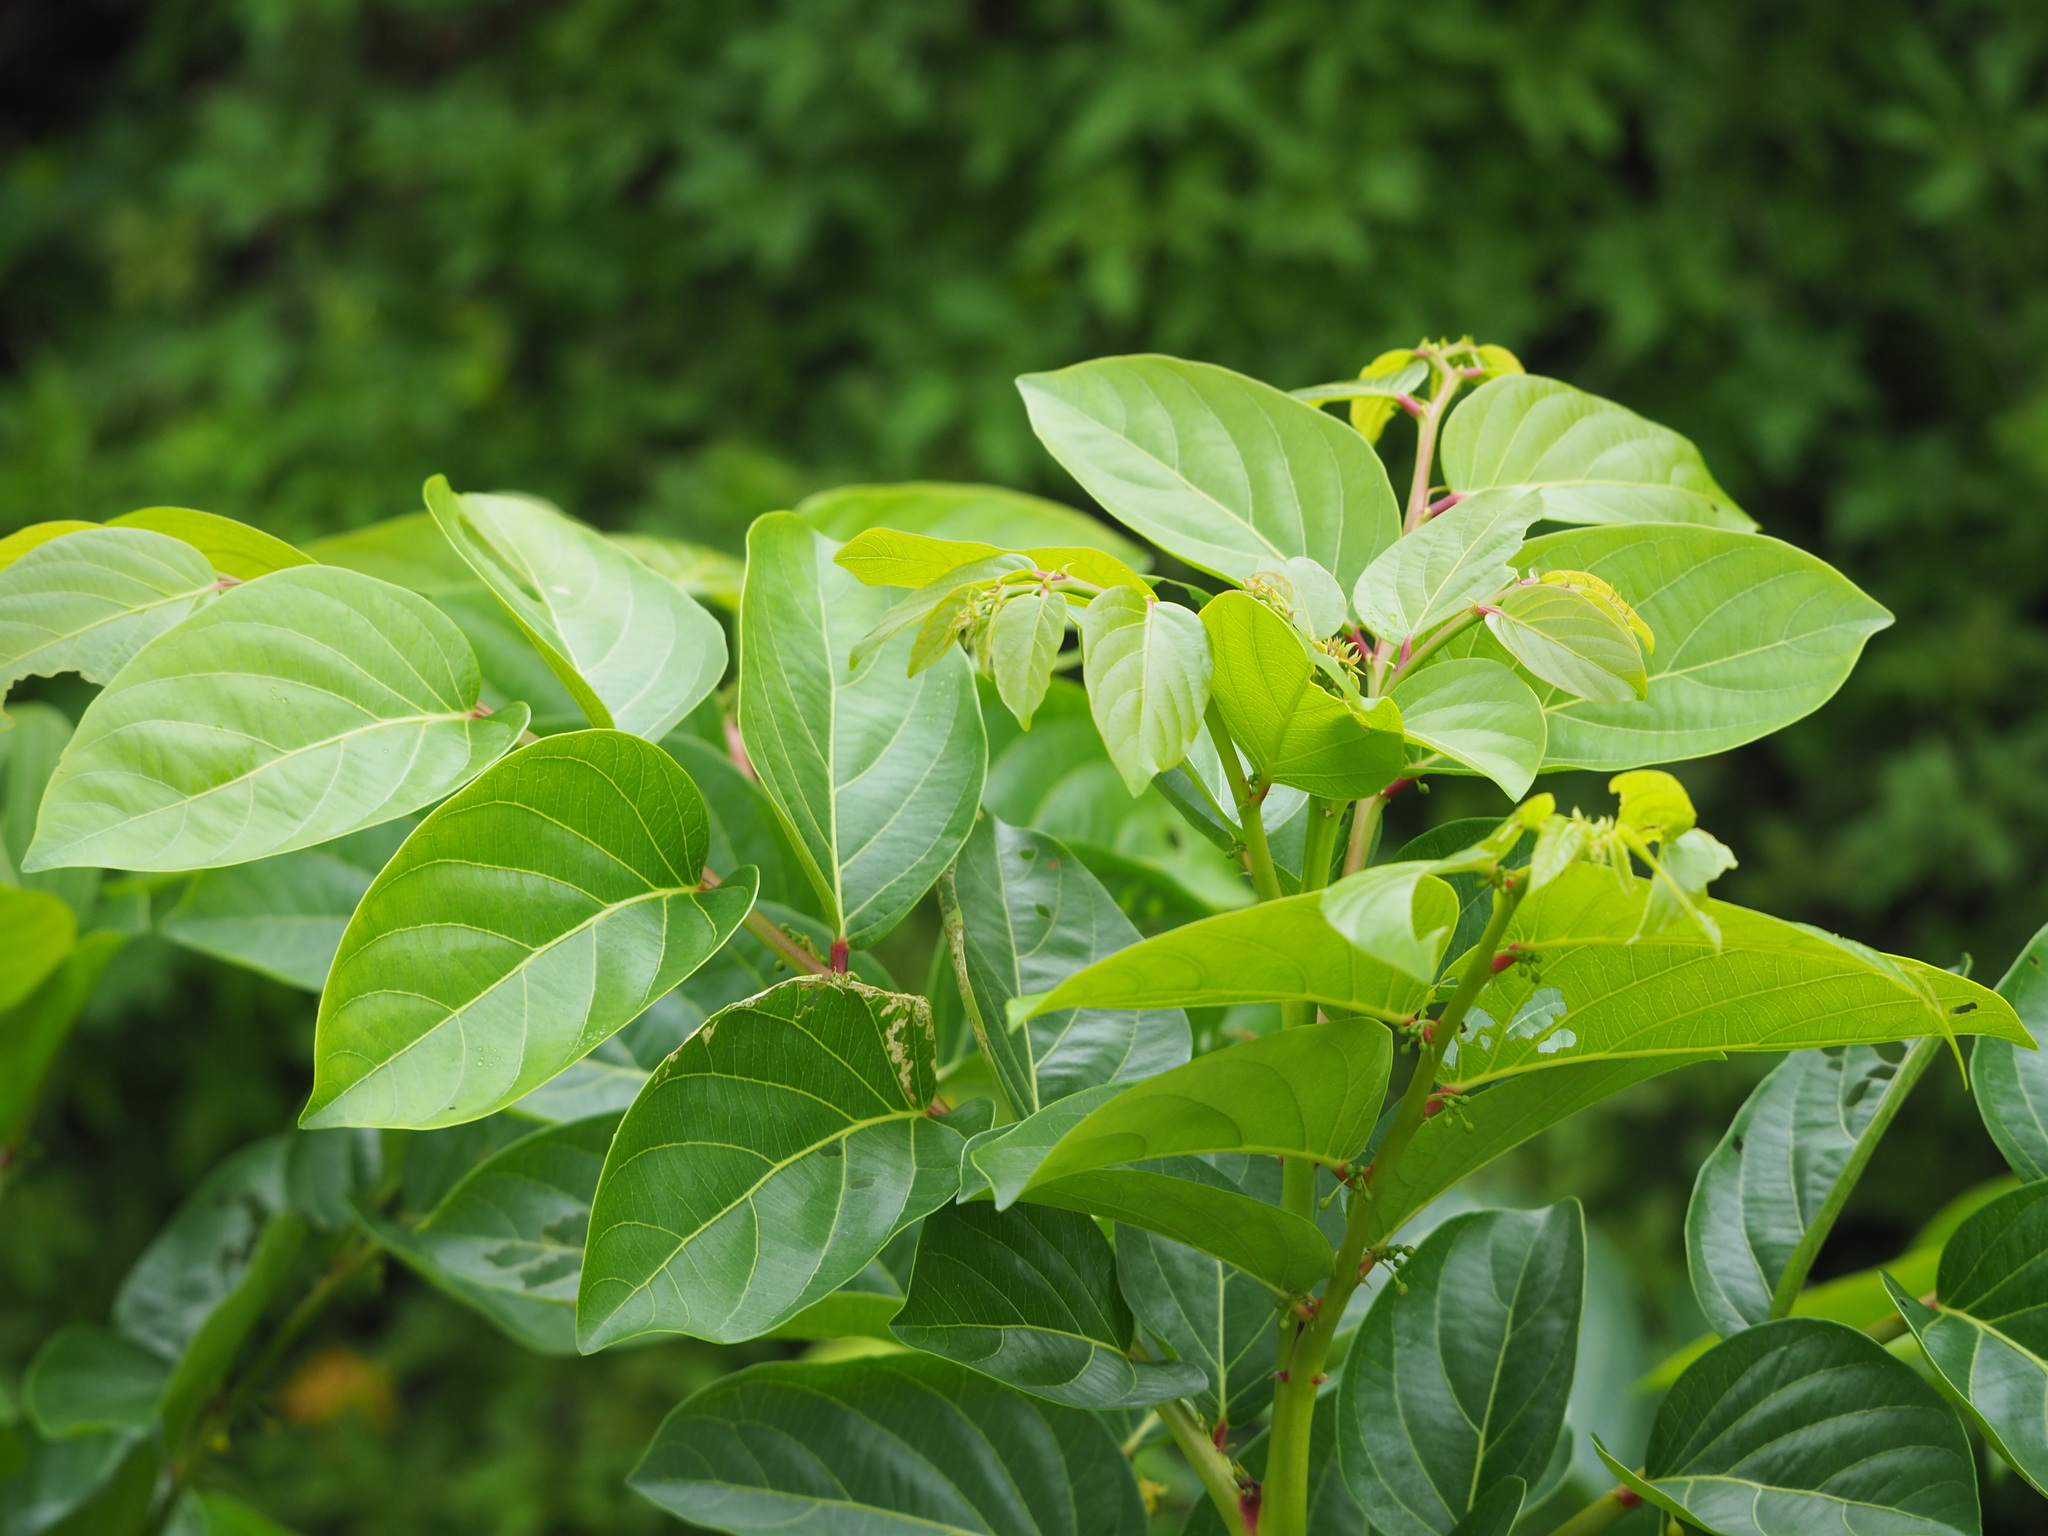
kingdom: Plantae
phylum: Tracheophyta
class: Magnoliopsida
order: Malpighiales
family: Phyllanthaceae
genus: Glochidion
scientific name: Glochidion zeylanicum
